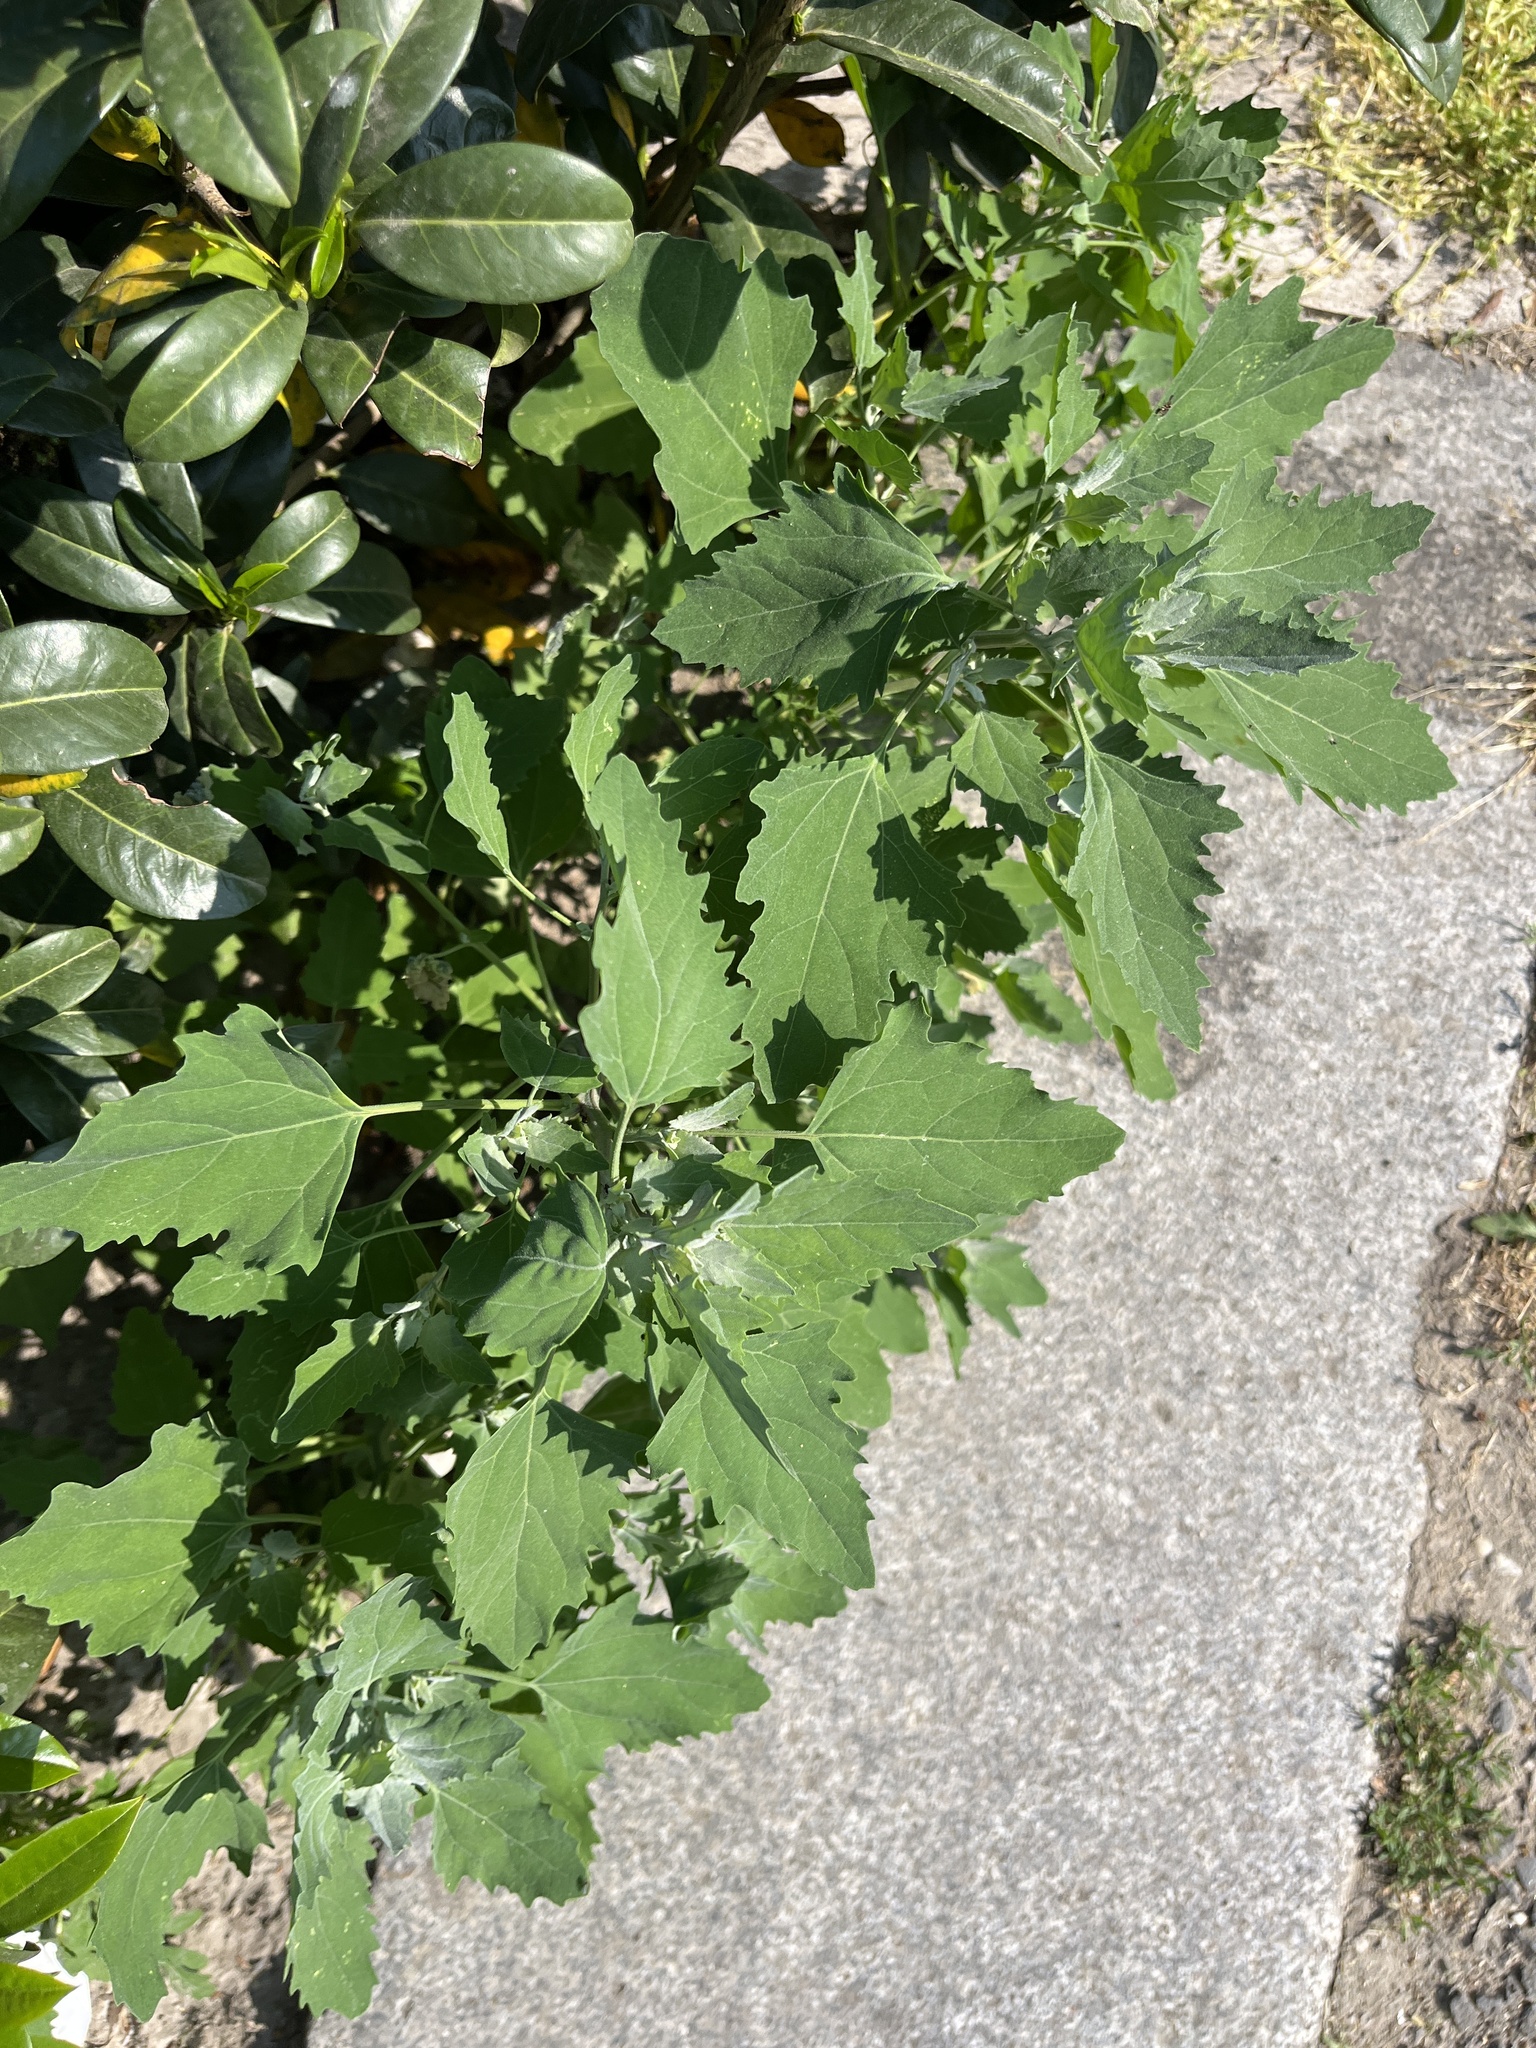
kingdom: Plantae
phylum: Tracheophyta
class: Magnoliopsida
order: Caryophyllales
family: Amaranthaceae
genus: Chenopodium
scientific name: Chenopodium album
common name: Fat-hen
